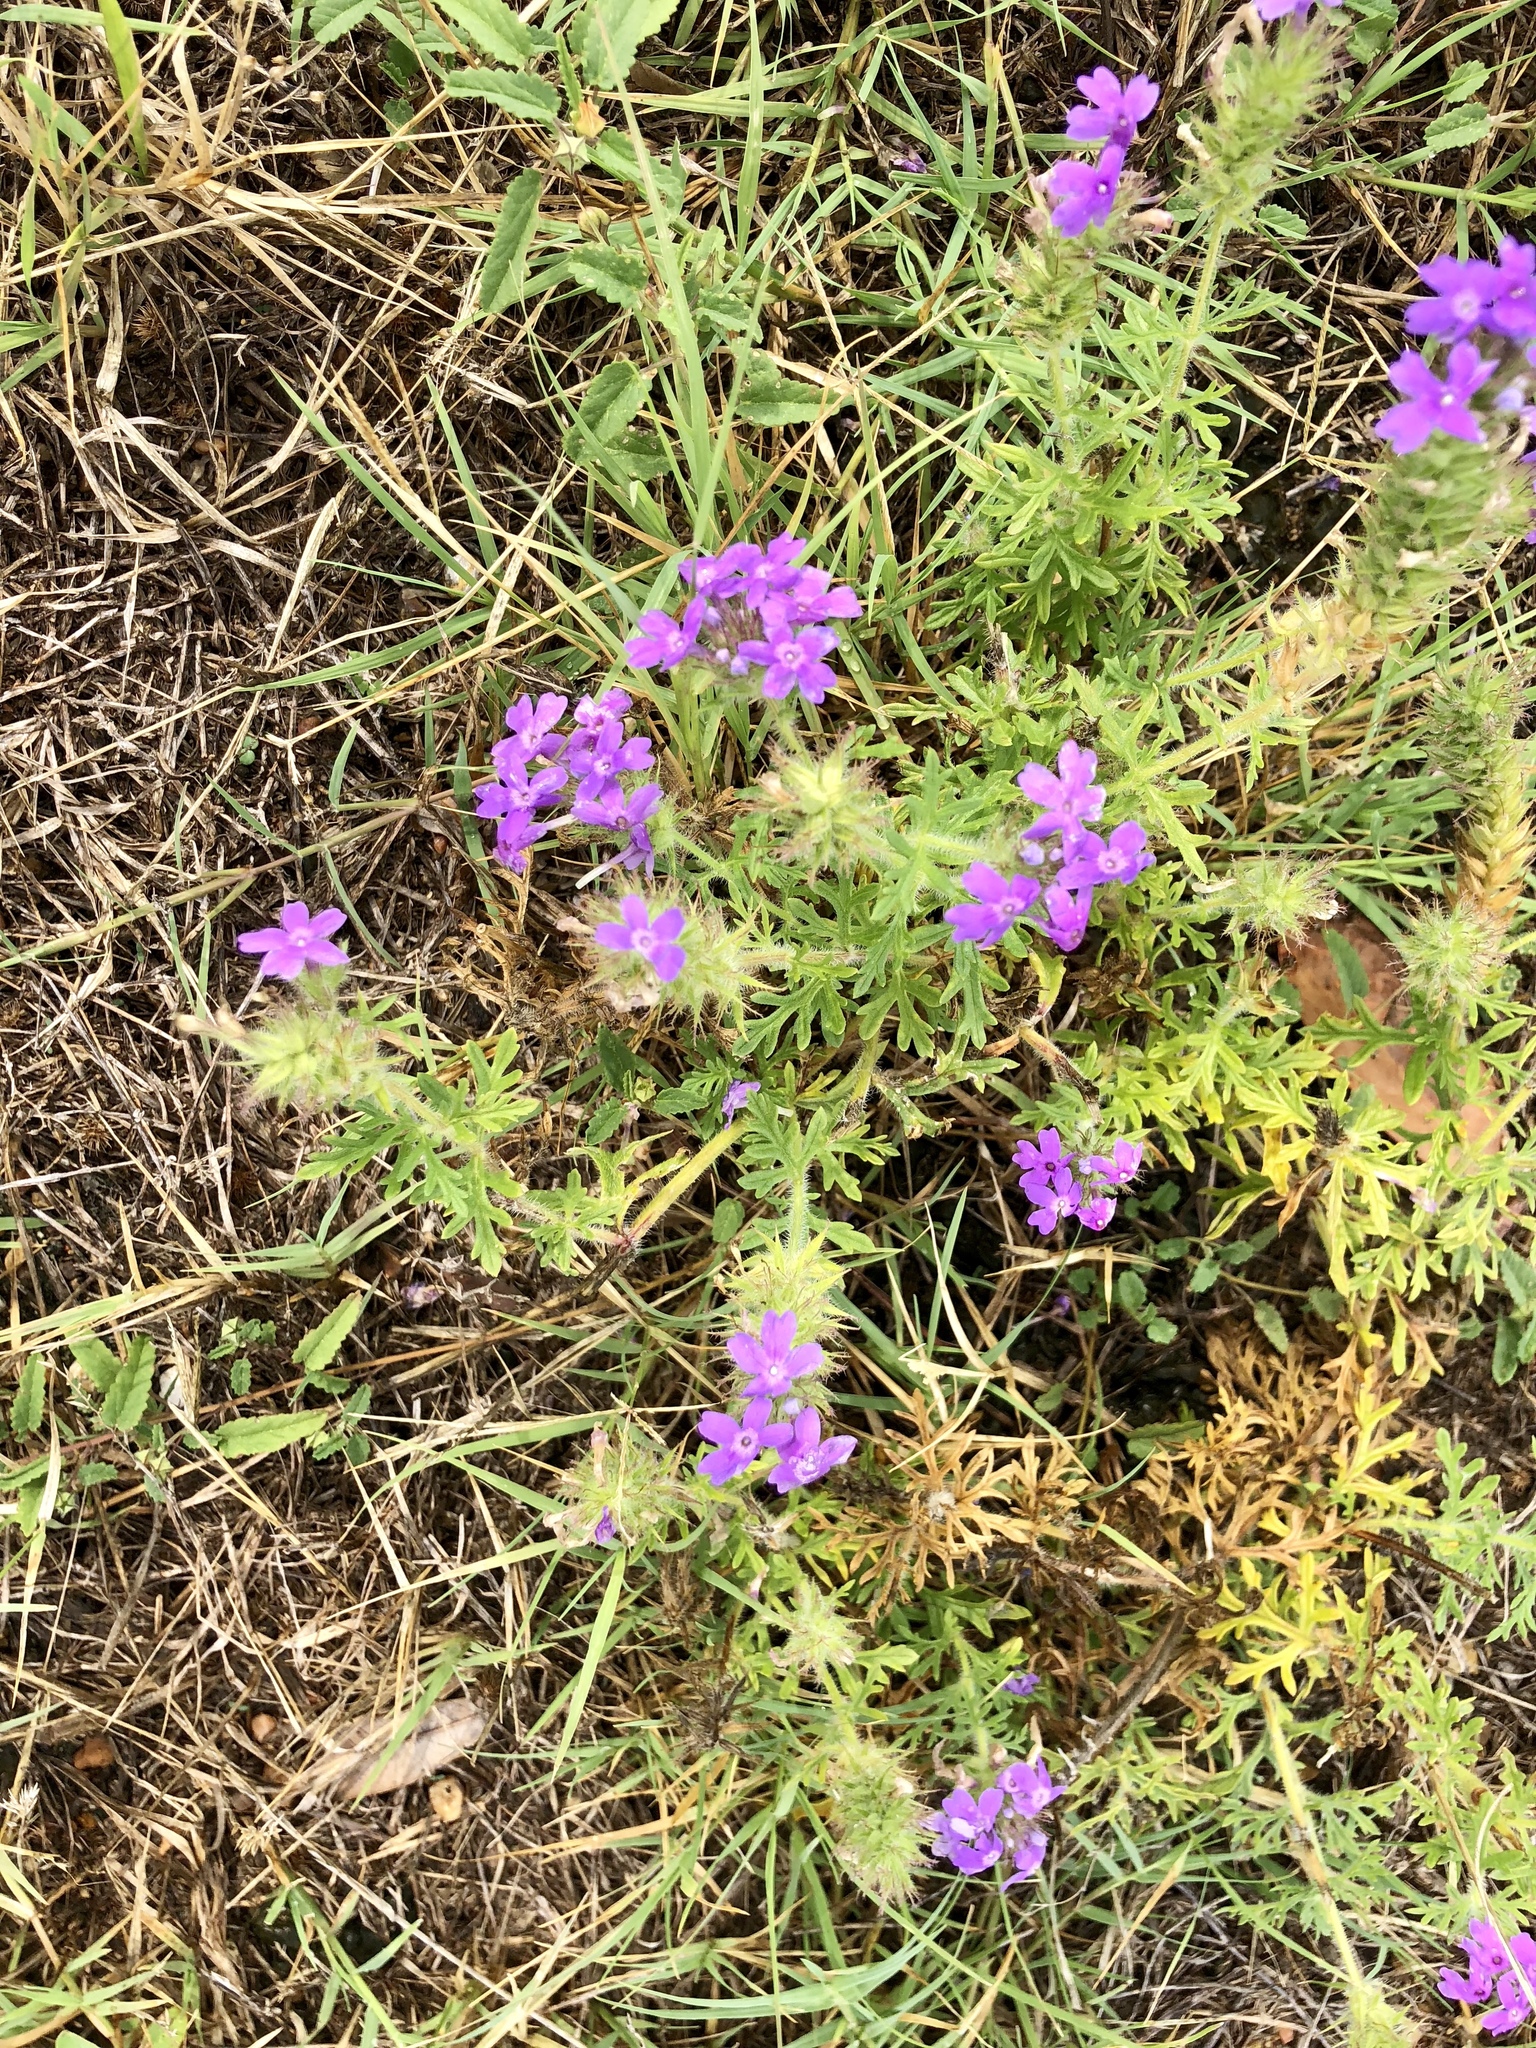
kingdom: Plantae
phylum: Tracheophyta
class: Magnoliopsida
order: Lamiales
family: Verbenaceae
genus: Verbena
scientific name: Verbena bipinnatifida
